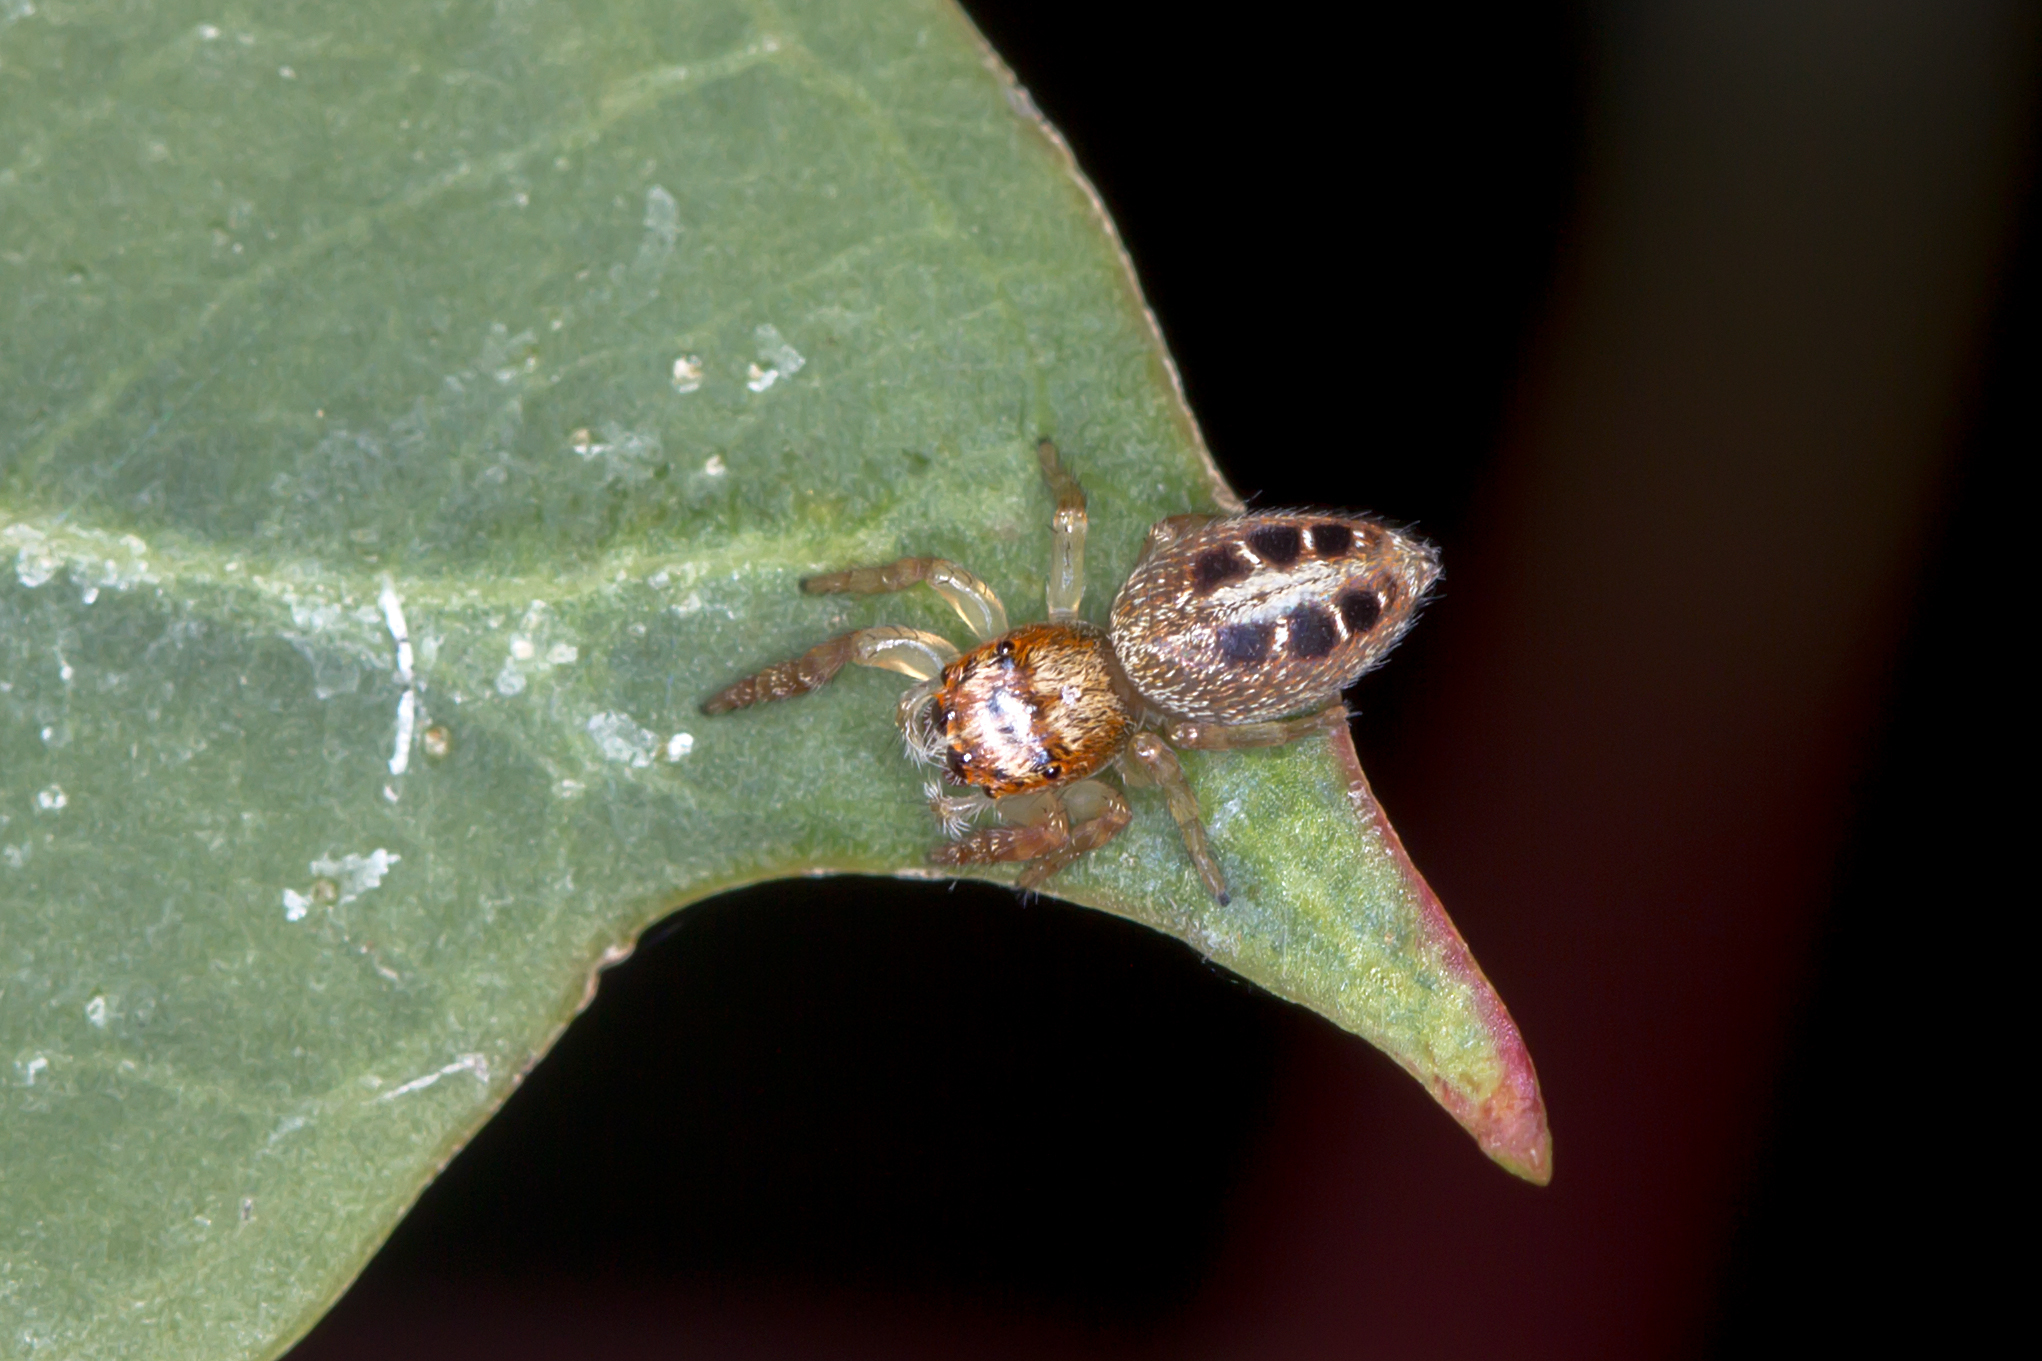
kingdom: Animalia
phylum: Arthropoda
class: Arachnida
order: Araneae
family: Salticidae
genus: Opisthoncus
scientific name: Opisthoncus sexmaculatus
